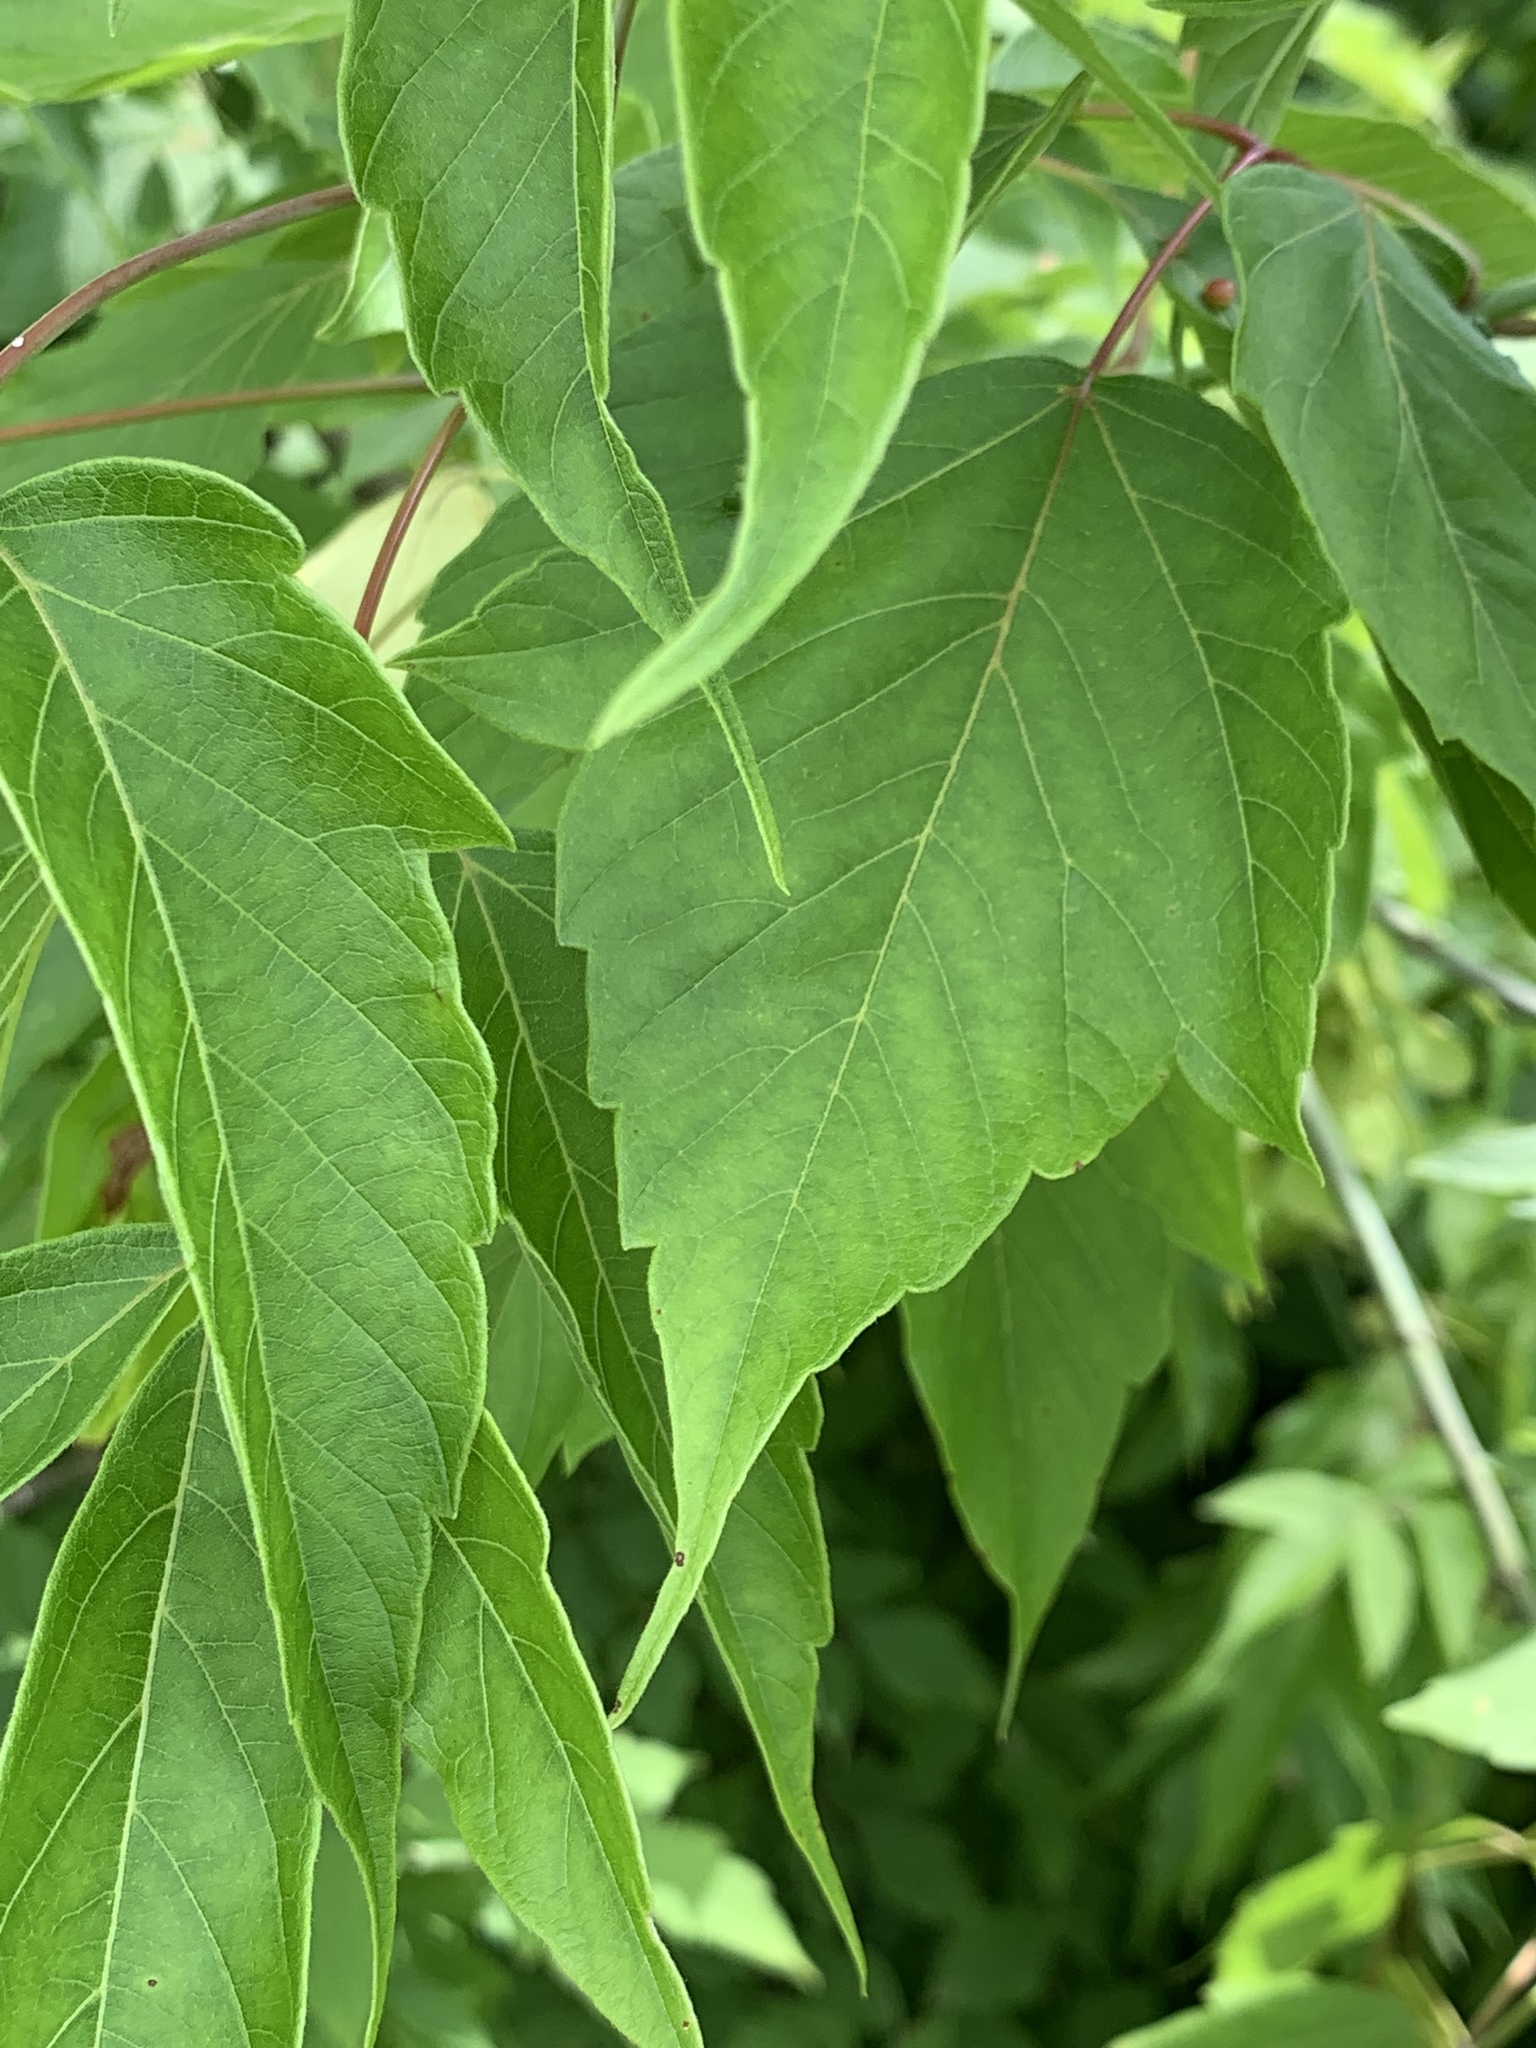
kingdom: Plantae
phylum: Tracheophyta
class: Magnoliopsida
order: Sapindales
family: Sapindaceae
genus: Acer
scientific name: Acer negundo
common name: Ashleaf maple
